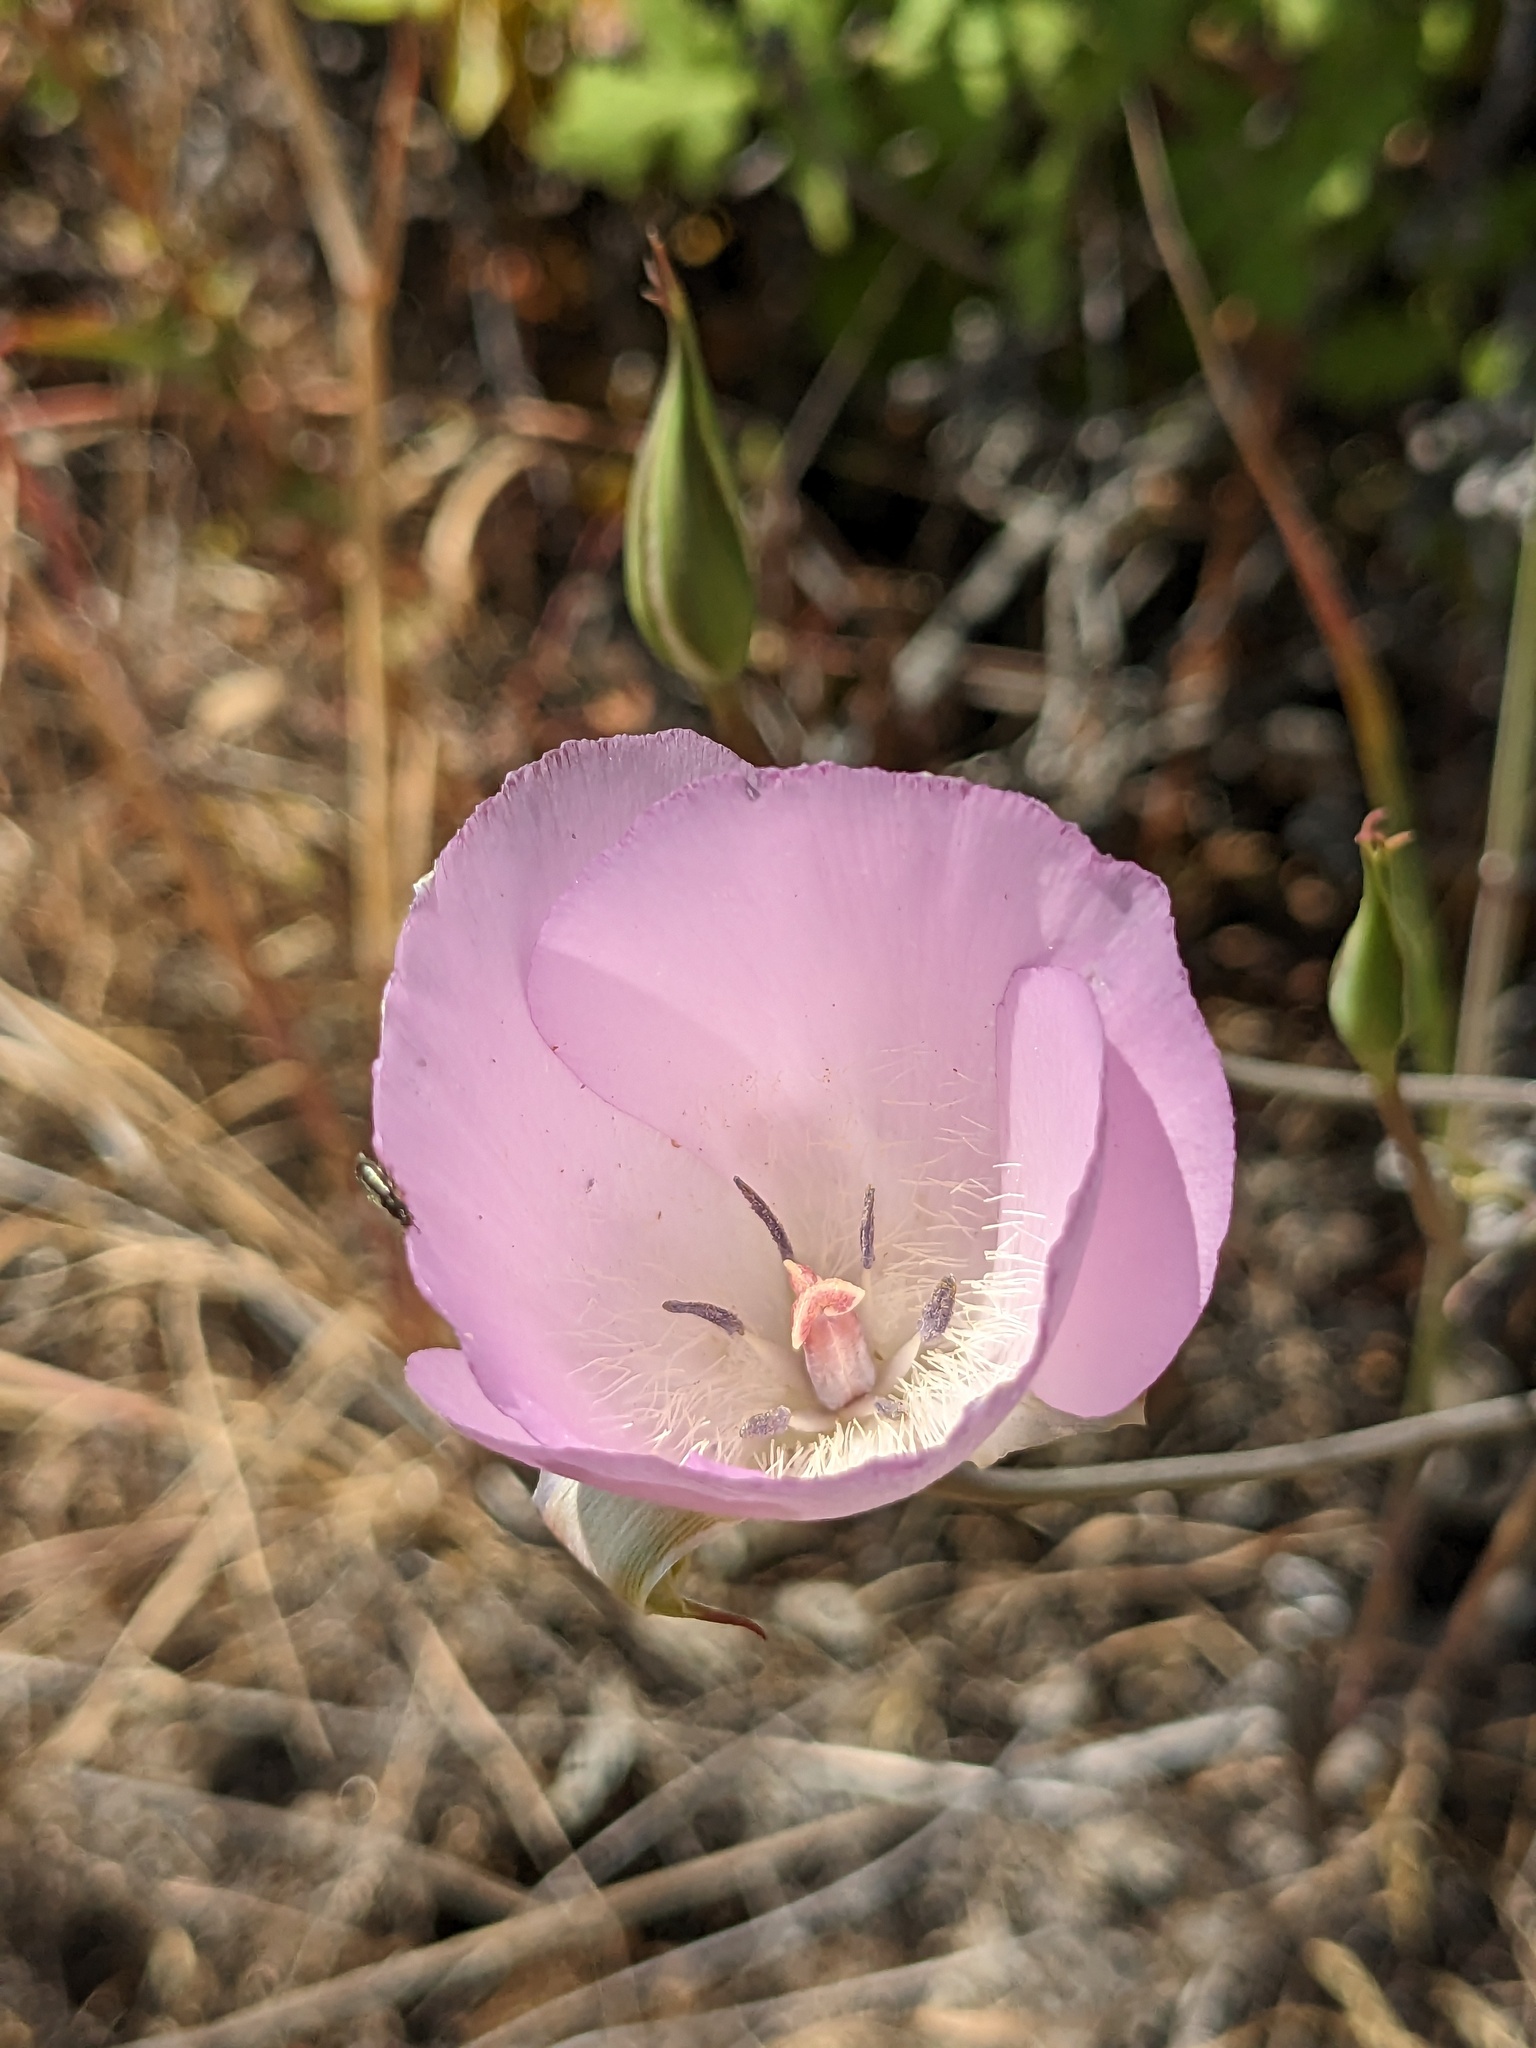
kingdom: Plantae
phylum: Tracheophyta
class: Liliopsida
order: Liliales
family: Liliaceae
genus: Calochortus
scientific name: Calochortus splendens
